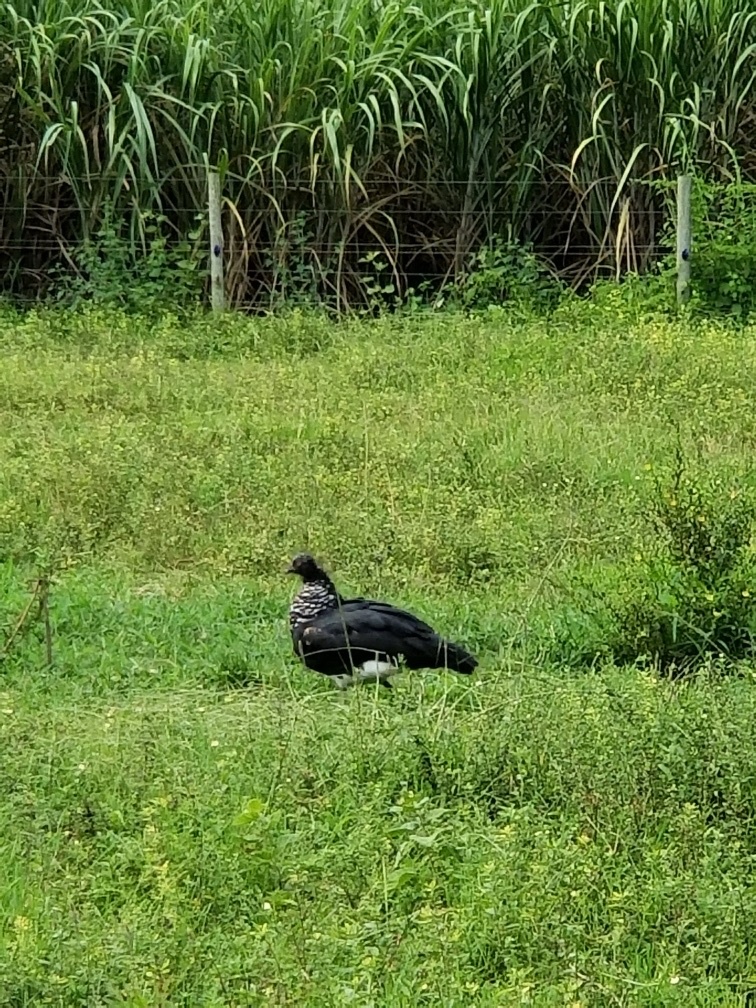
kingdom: Animalia
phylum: Chordata
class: Aves
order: Anseriformes
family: Anhimidae
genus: Anhima
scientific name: Anhima cornuta
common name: Horned screamer
